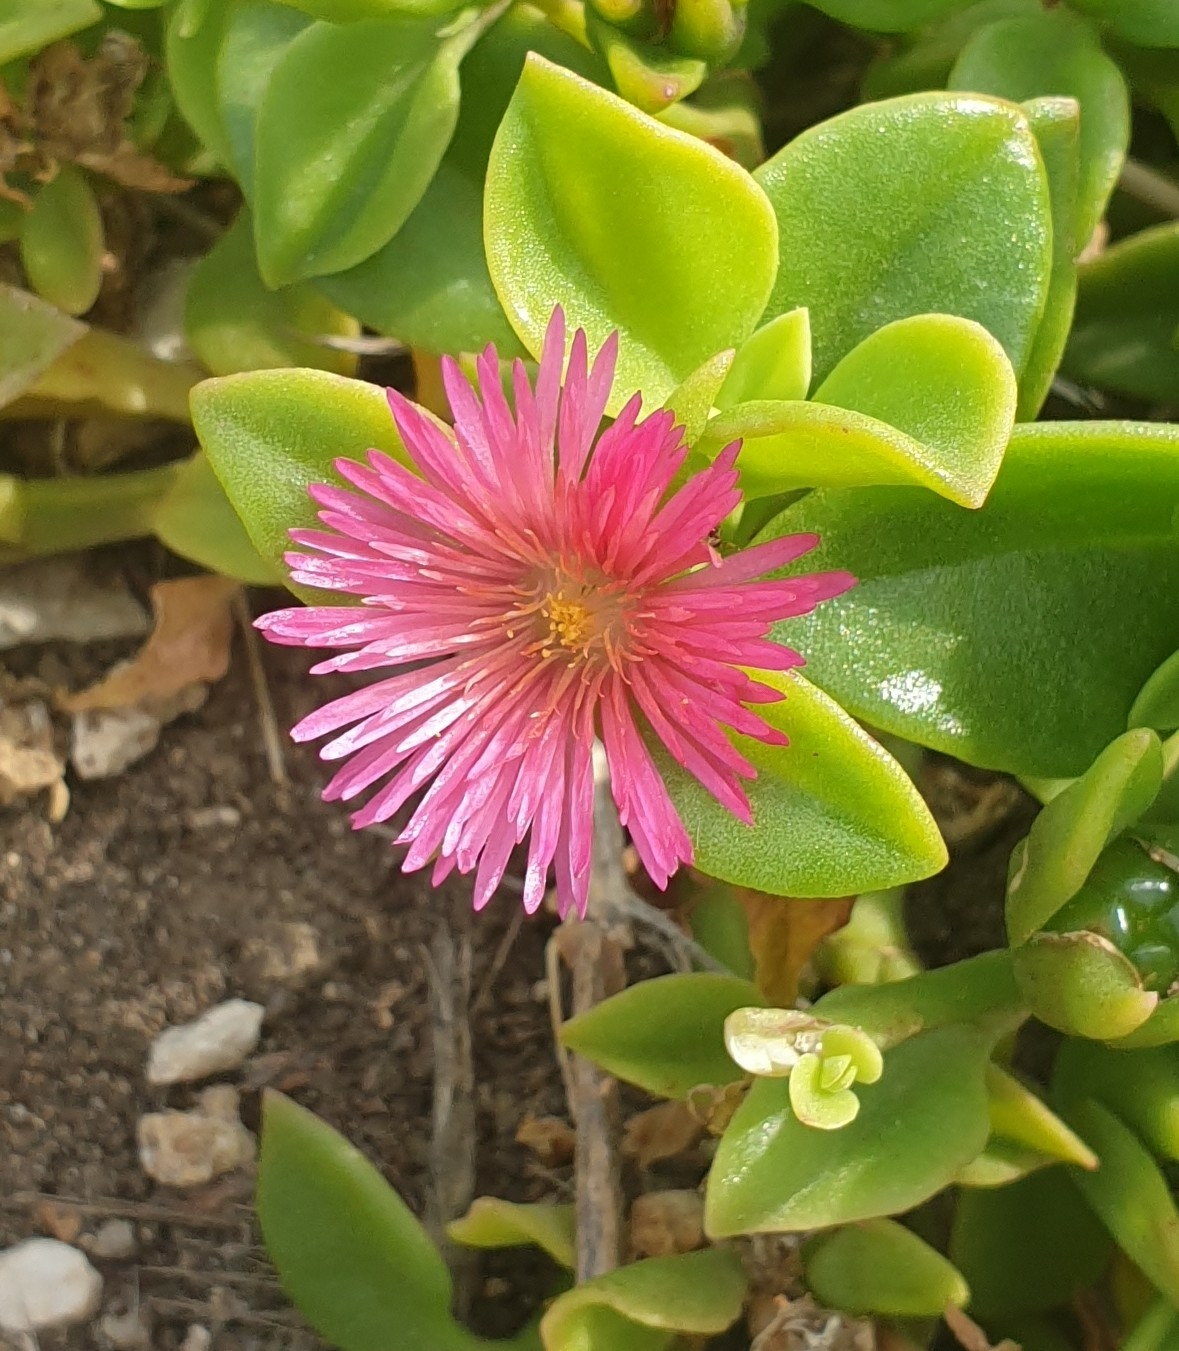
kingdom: Plantae
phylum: Tracheophyta
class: Magnoliopsida
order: Caryophyllales
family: Aizoaceae
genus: Mesembryanthemum
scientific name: Mesembryanthemum cordifolium
